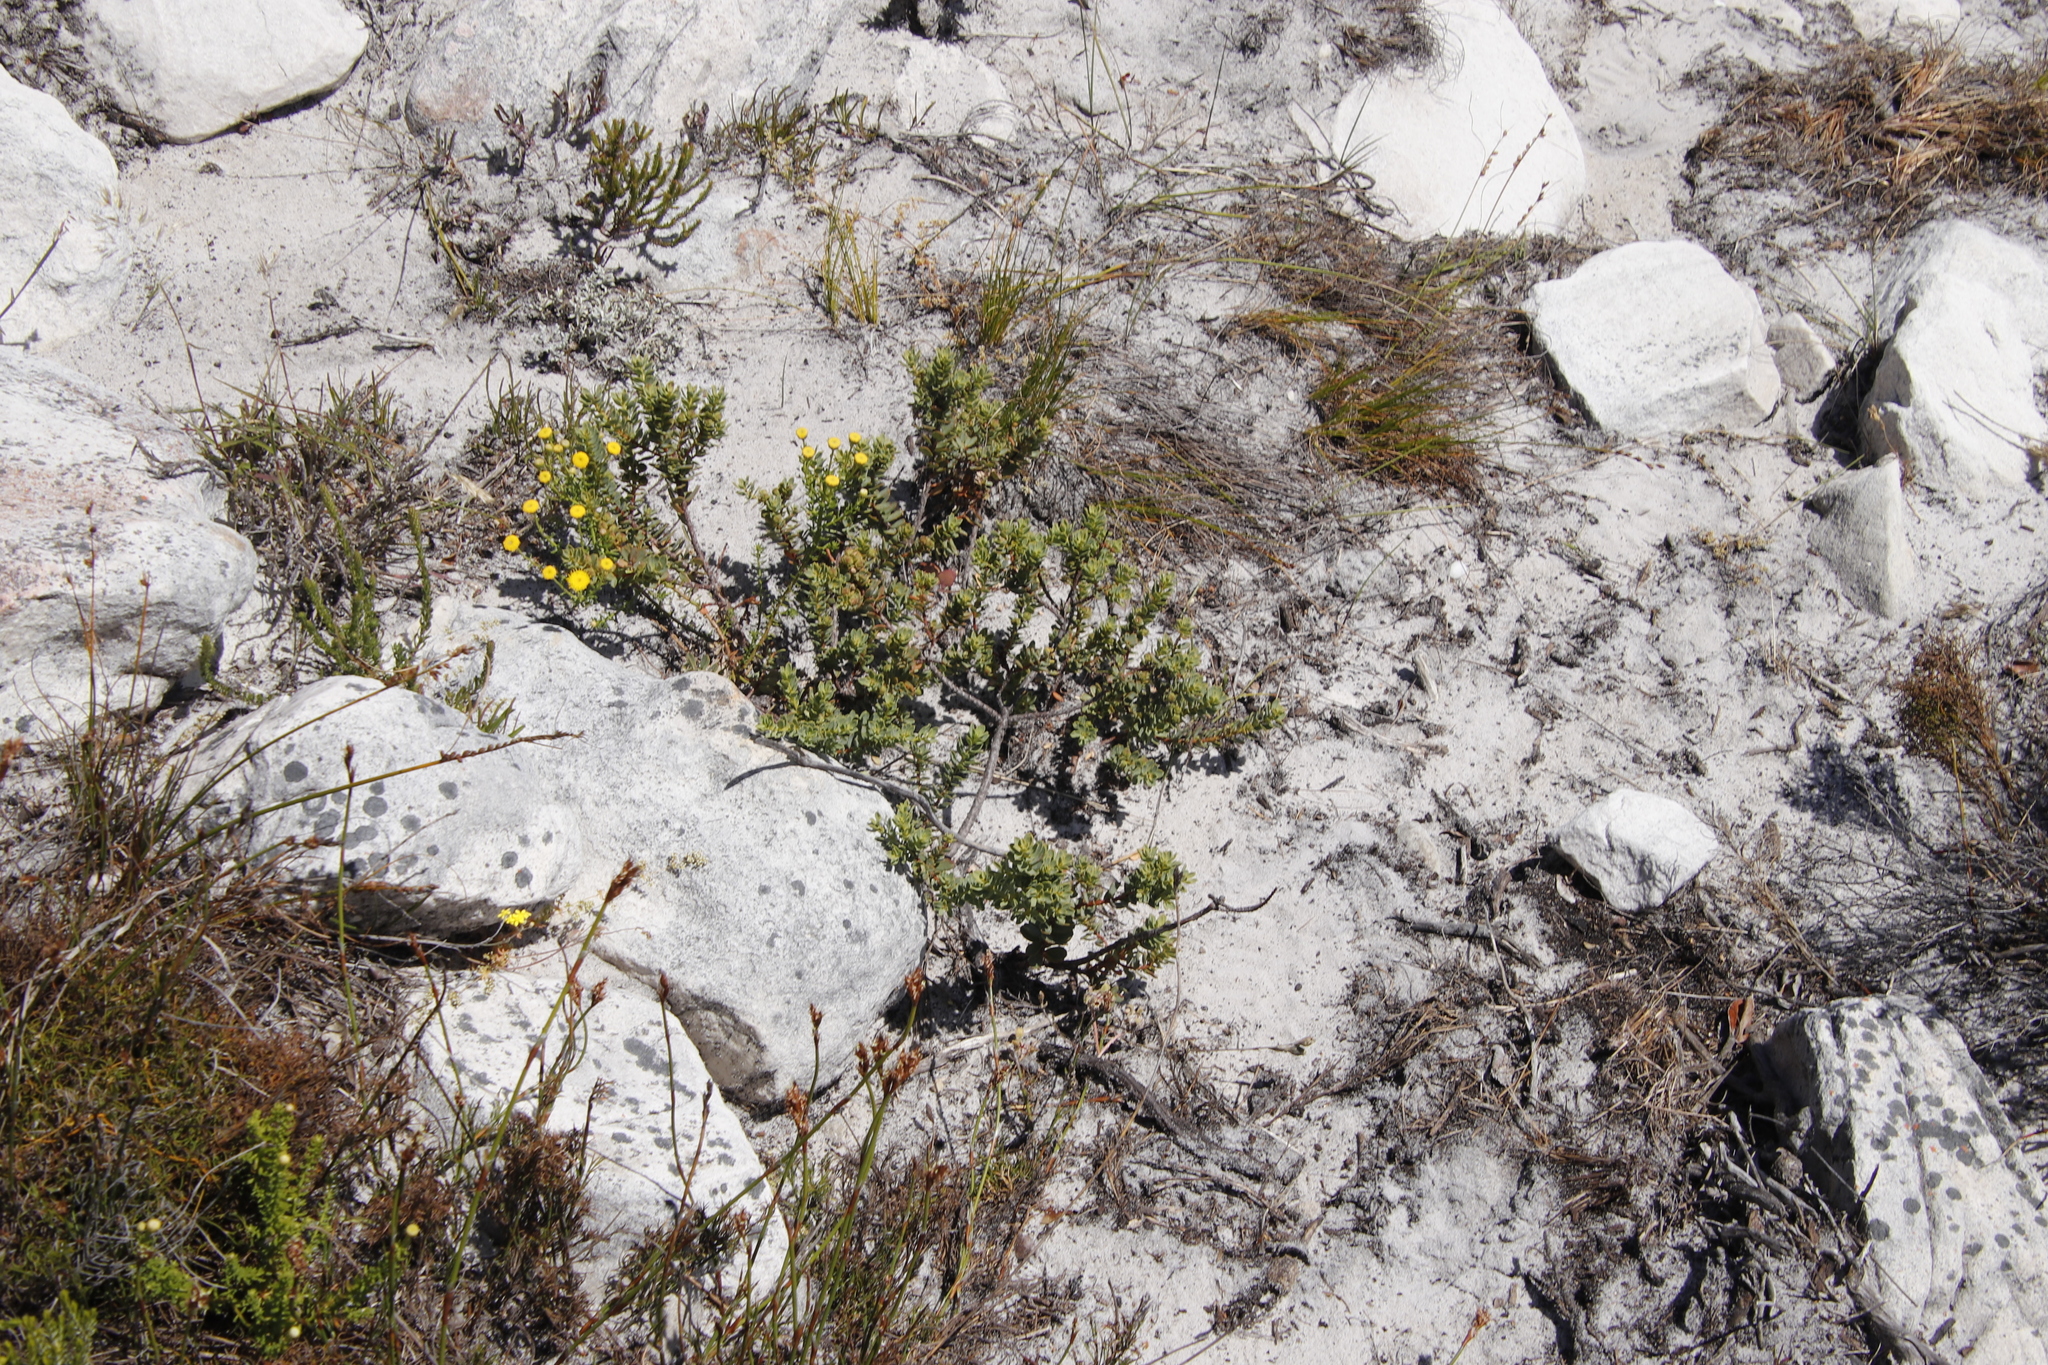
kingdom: Plantae
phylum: Tracheophyta
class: Magnoliopsida
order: Malpighiales
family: Peraceae
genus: Clutia
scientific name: Clutia alaternoides
